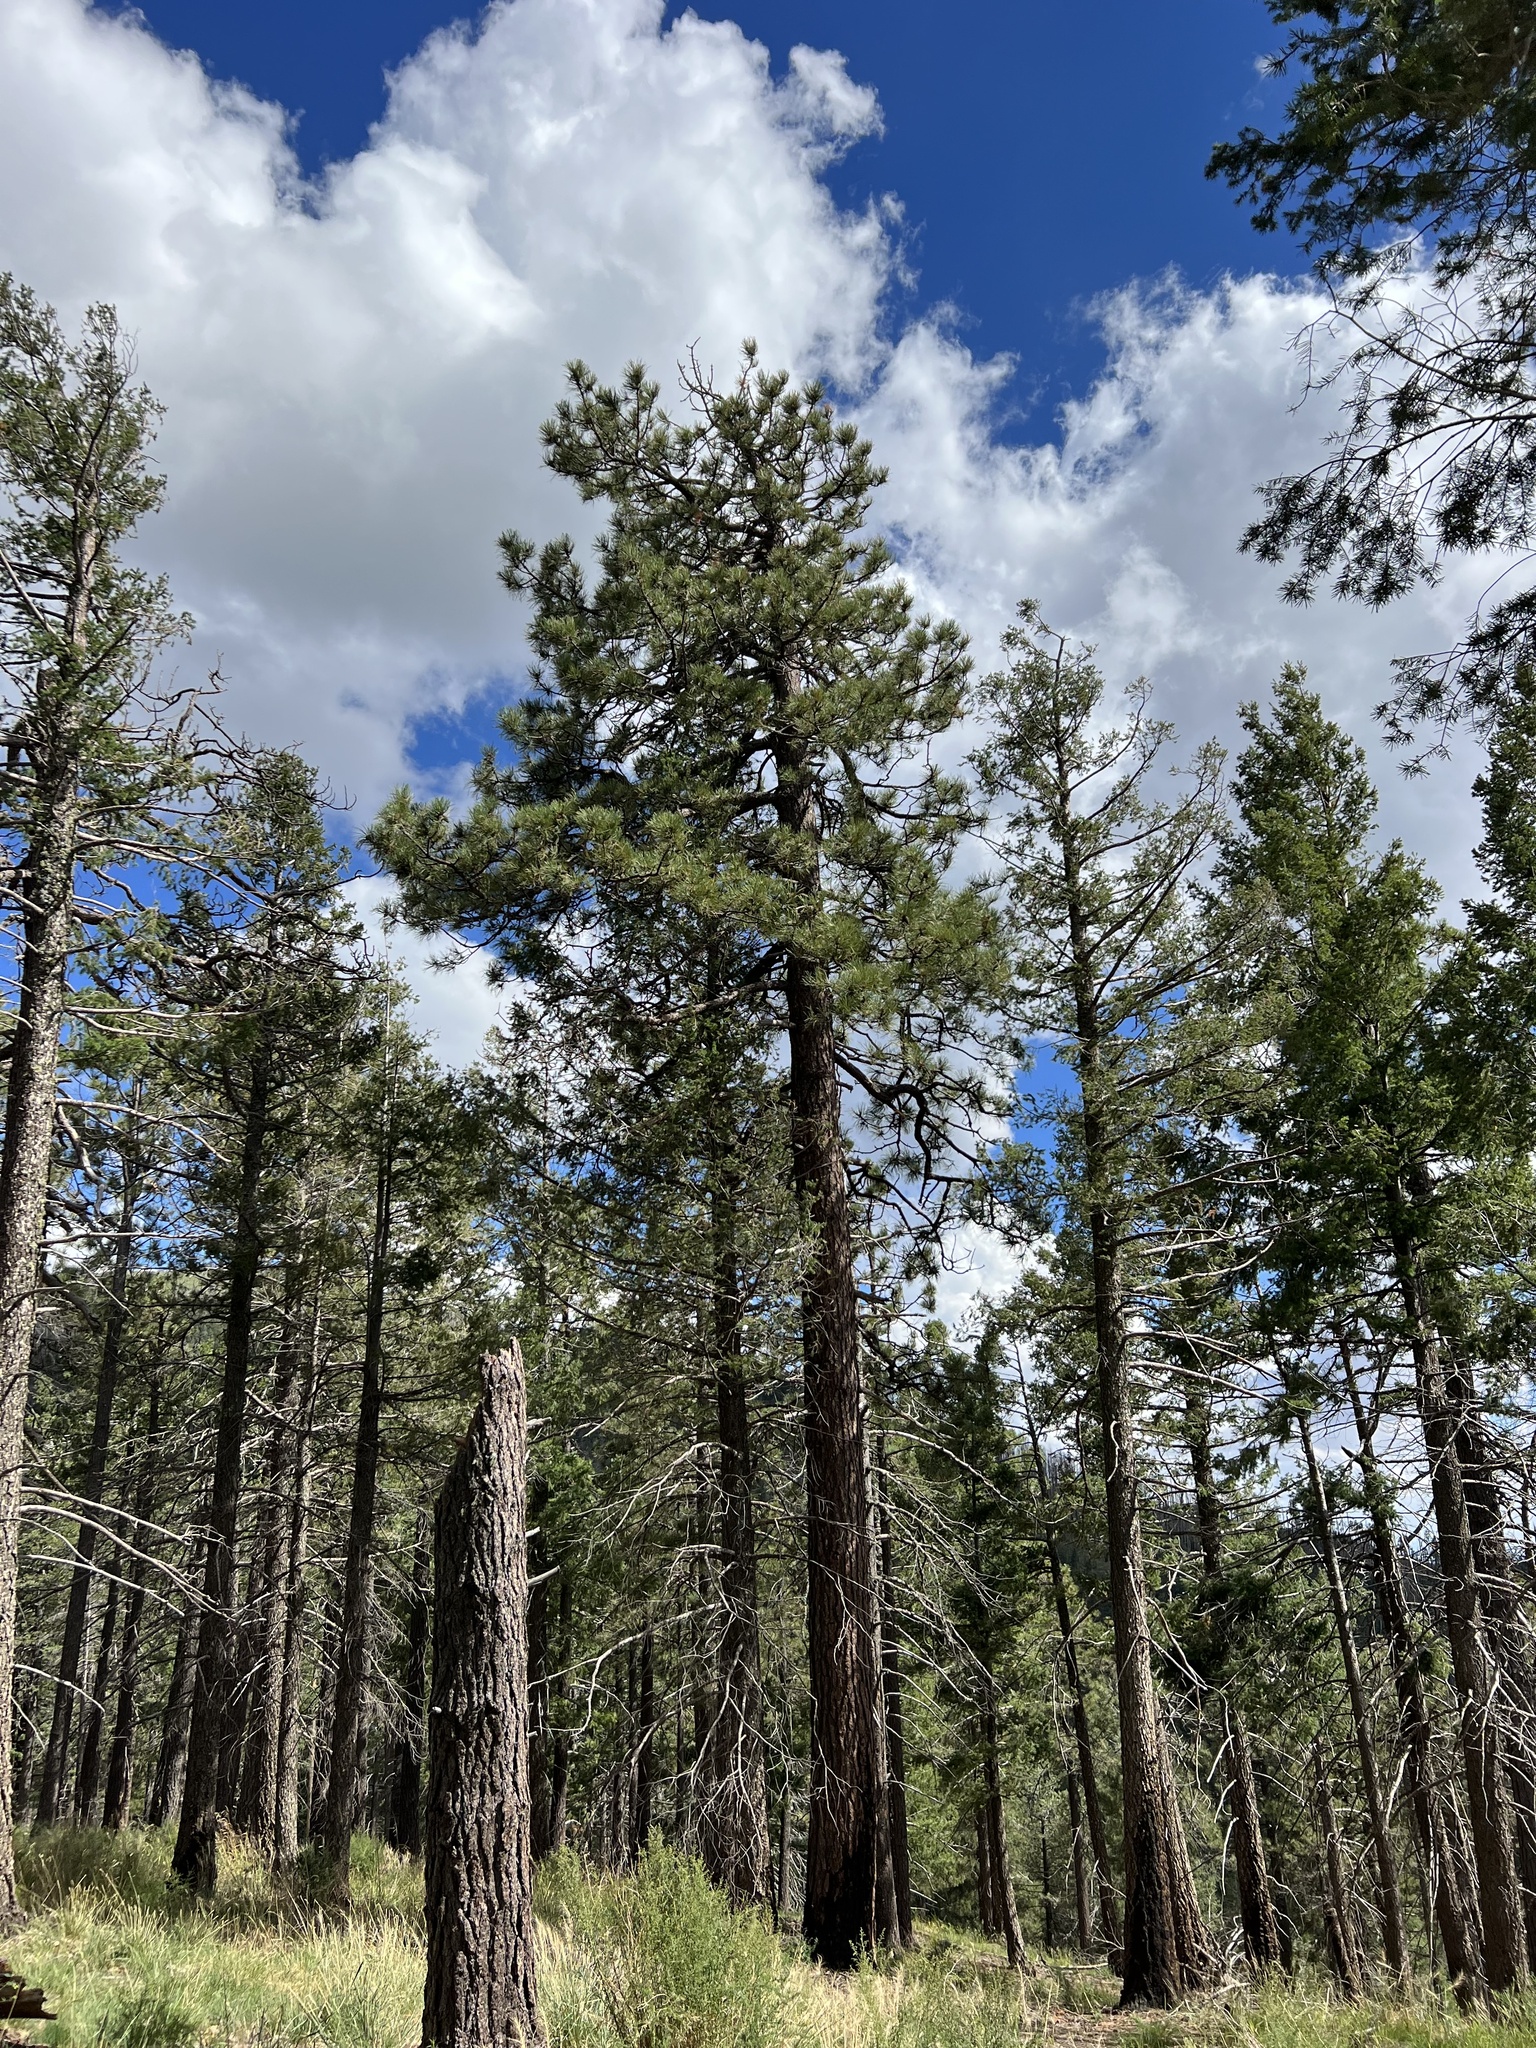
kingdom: Plantae
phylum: Tracheophyta
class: Pinopsida
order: Pinales
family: Pinaceae
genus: Pinus
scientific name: Pinus ponderosa
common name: Western yellow-pine
